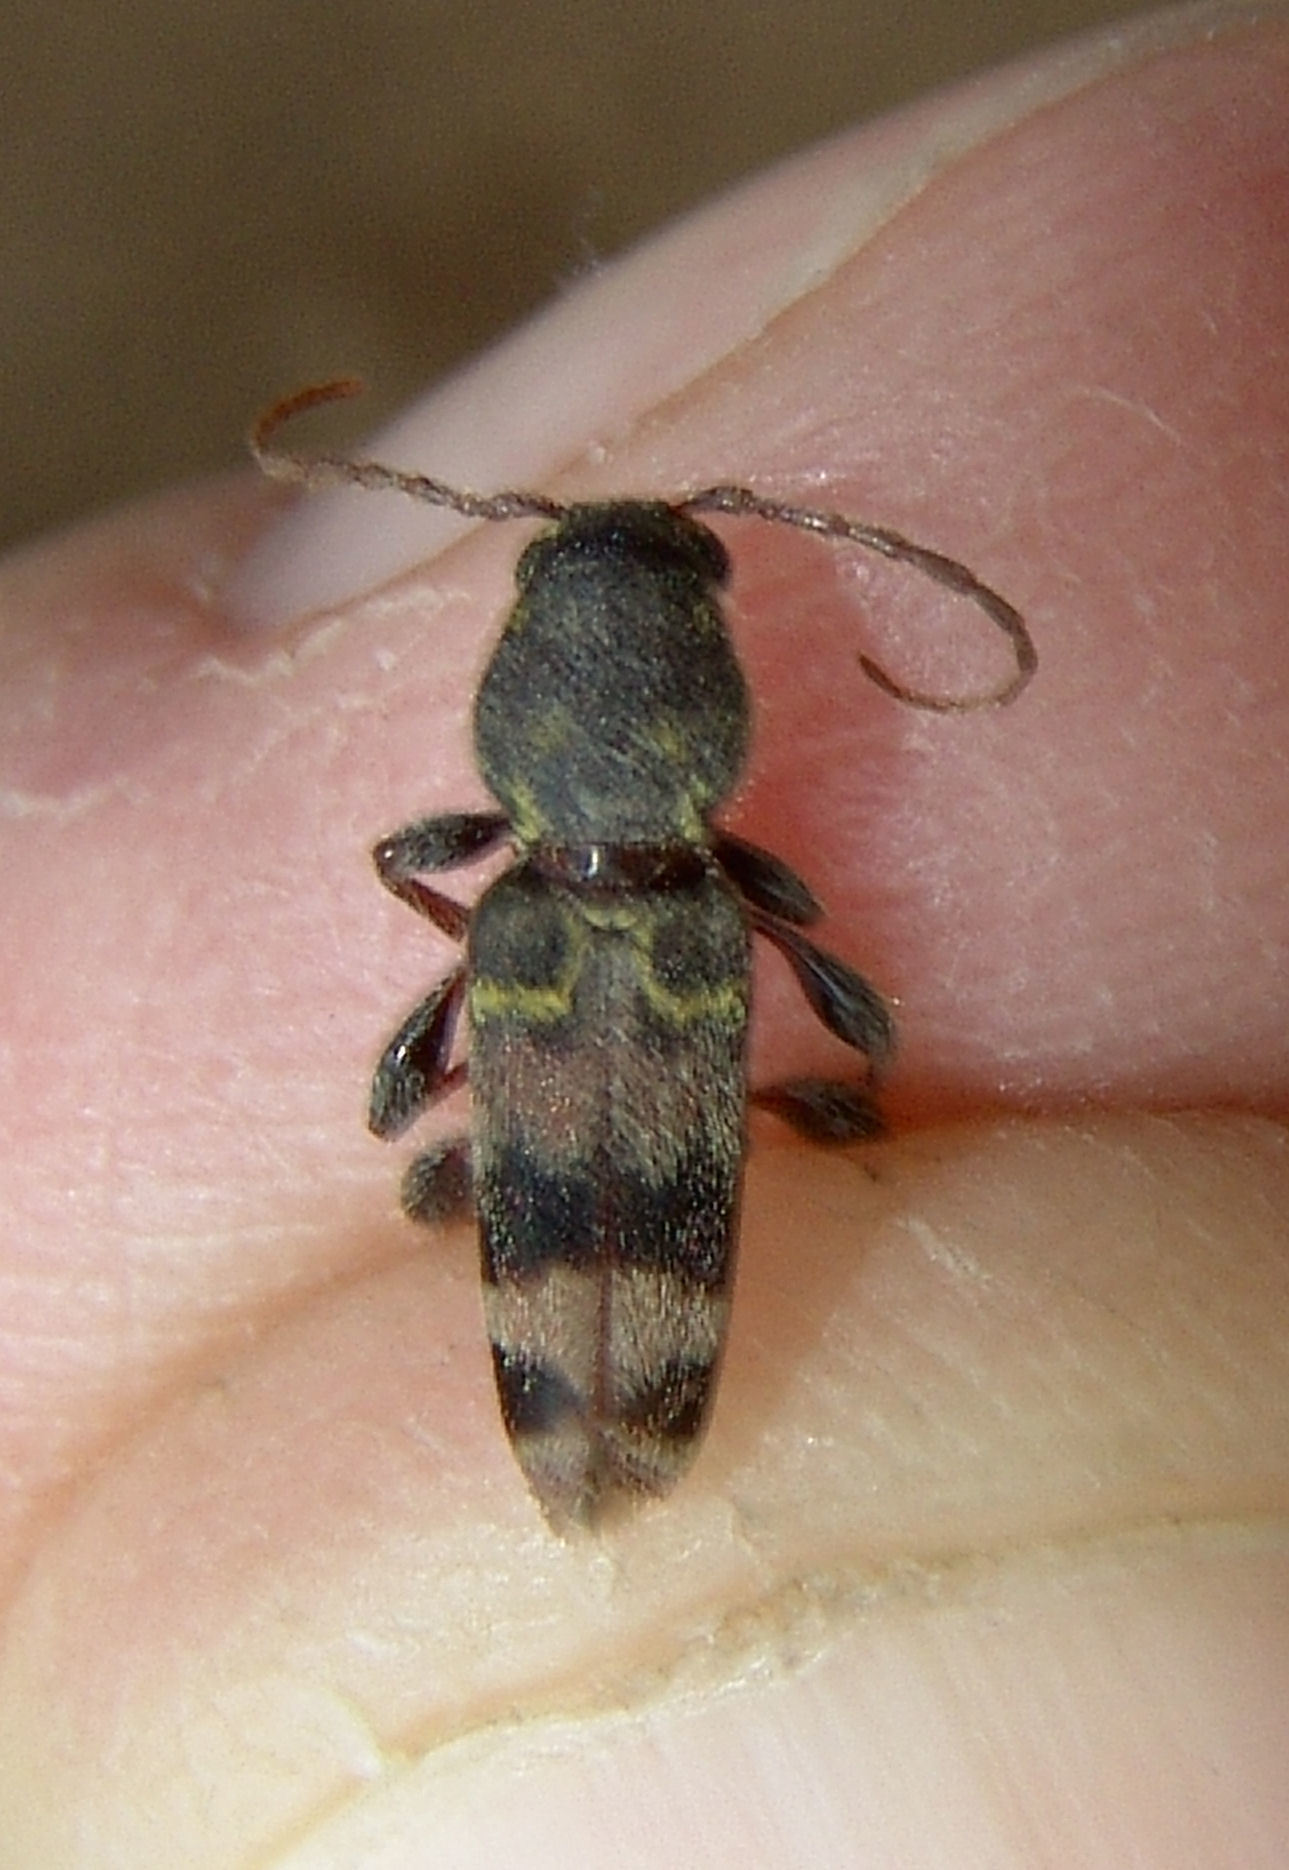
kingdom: Animalia
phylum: Arthropoda
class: Insecta
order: Coleoptera
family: Cerambycidae
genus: Xylotrechus
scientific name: Xylotrechus colonus
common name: Long-horned beetle
